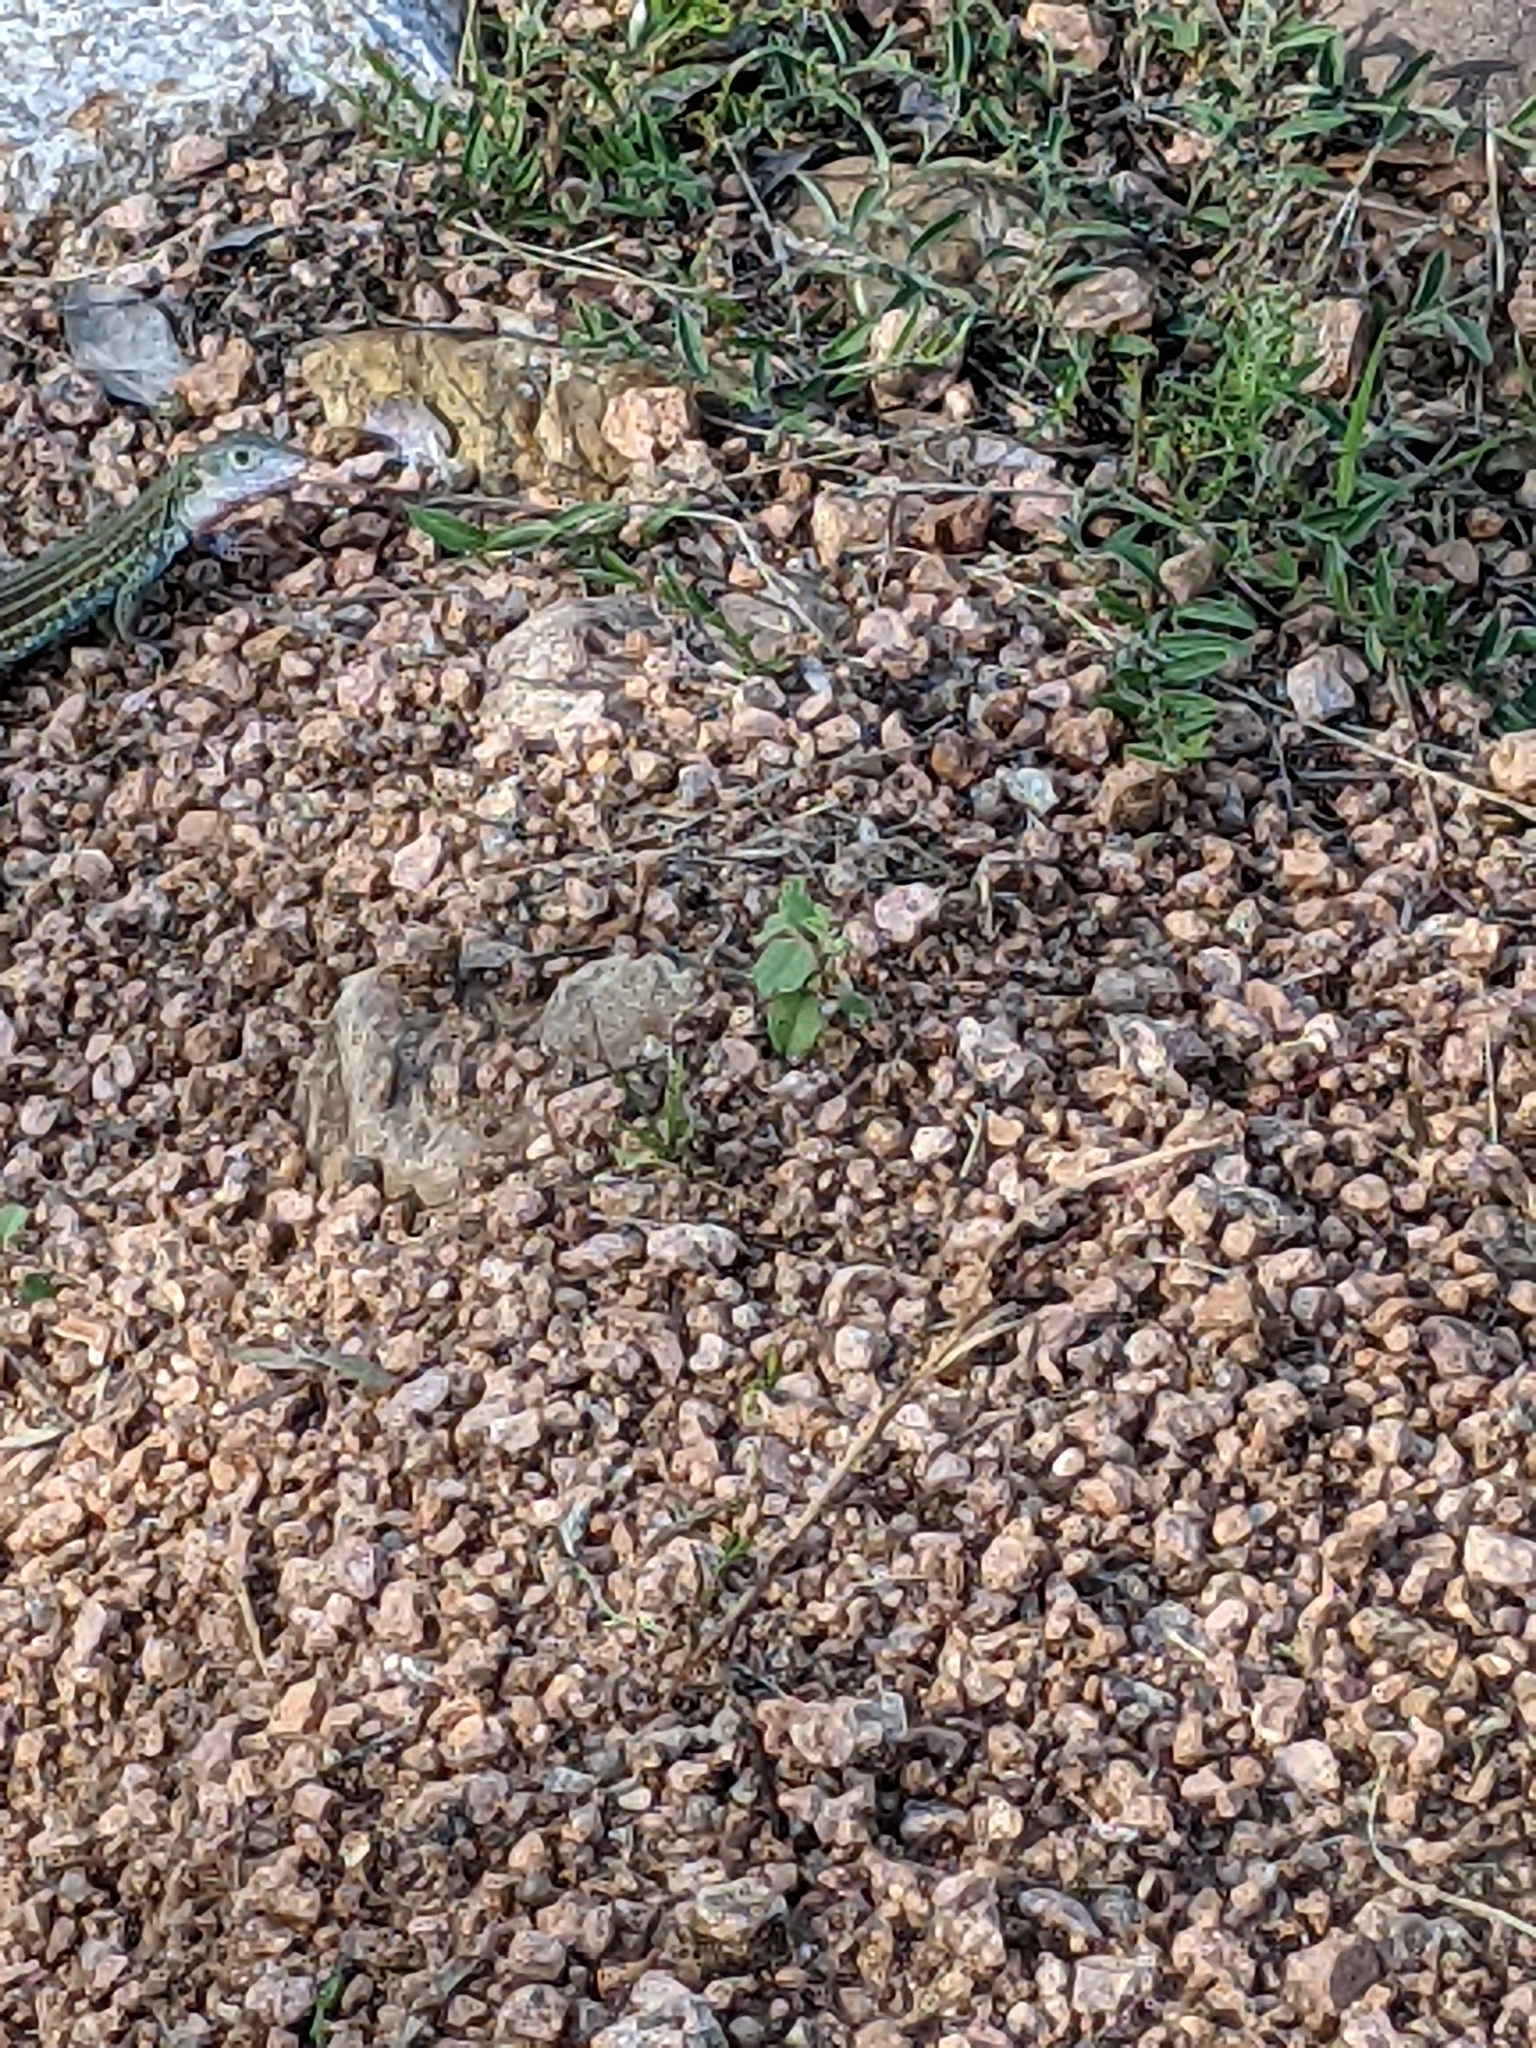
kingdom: Animalia
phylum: Chordata
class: Squamata
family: Teiidae
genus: Aspidoscelis
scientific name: Aspidoscelis gularis
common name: Eastern spotted whiptail
